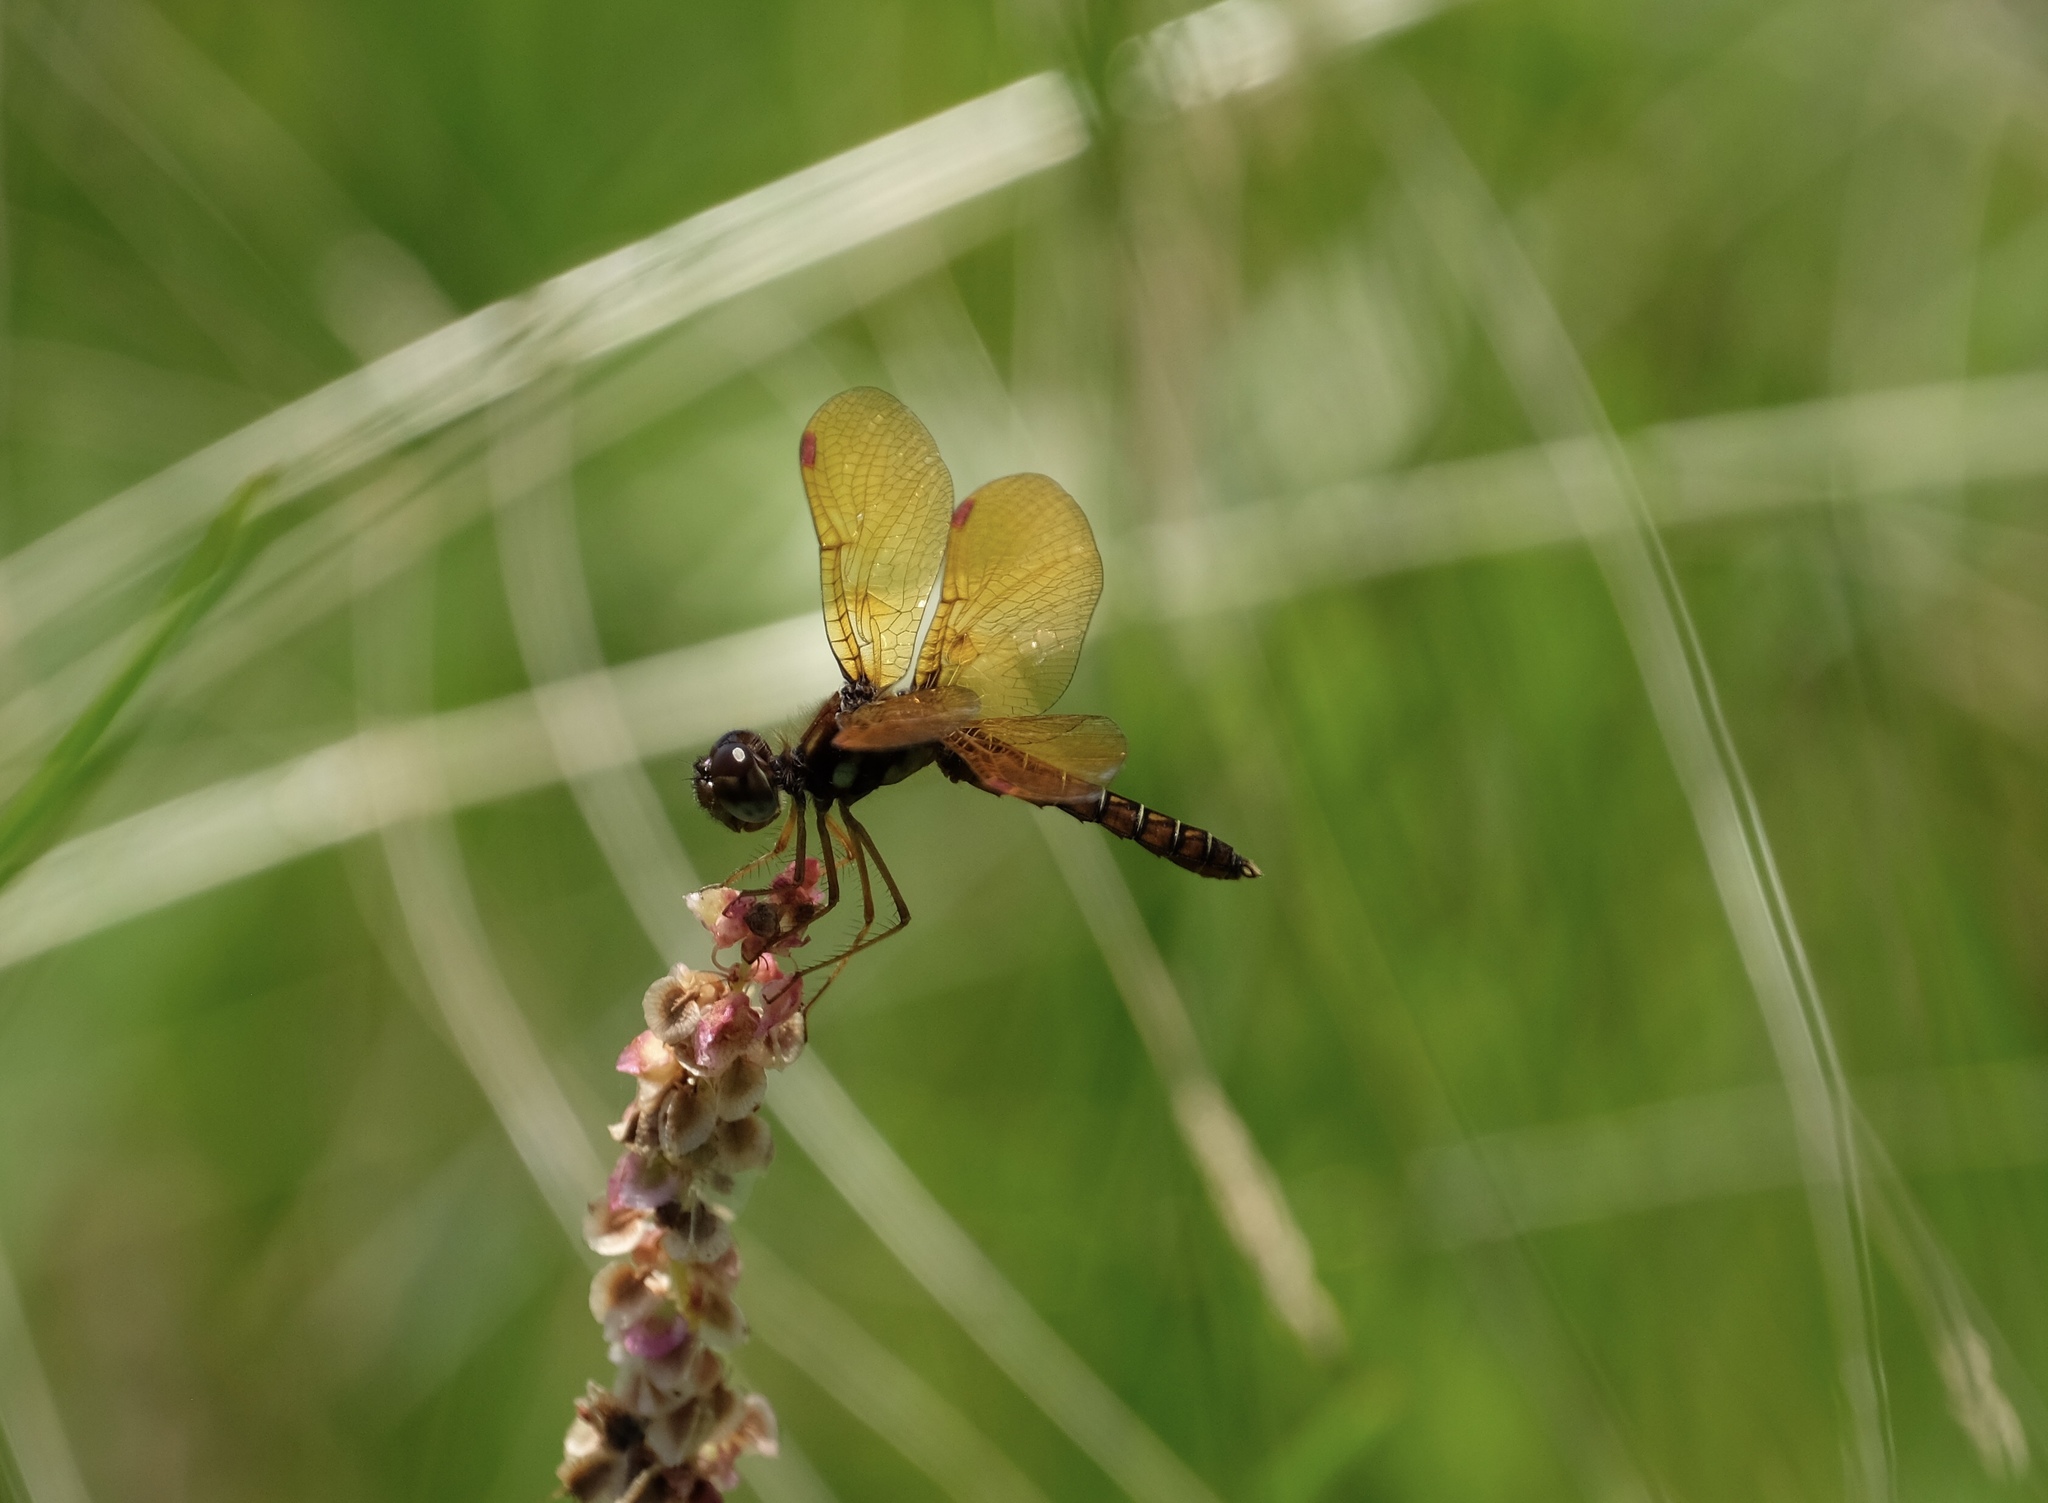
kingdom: Animalia
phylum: Arthropoda
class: Insecta
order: Odonata
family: Libellulidae
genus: Perithemis
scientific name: Perithemis tenera
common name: Eastern amberwing
